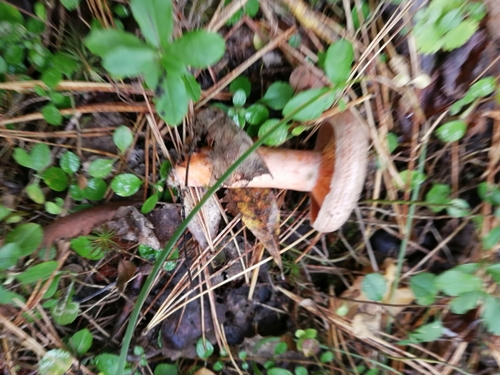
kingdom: Fungi
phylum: Basidiomycota
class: Agaricomycetes
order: Russulales
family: Russulaceae
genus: Lactarius
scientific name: Lactarius deterrimus
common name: False saffron milkcap
